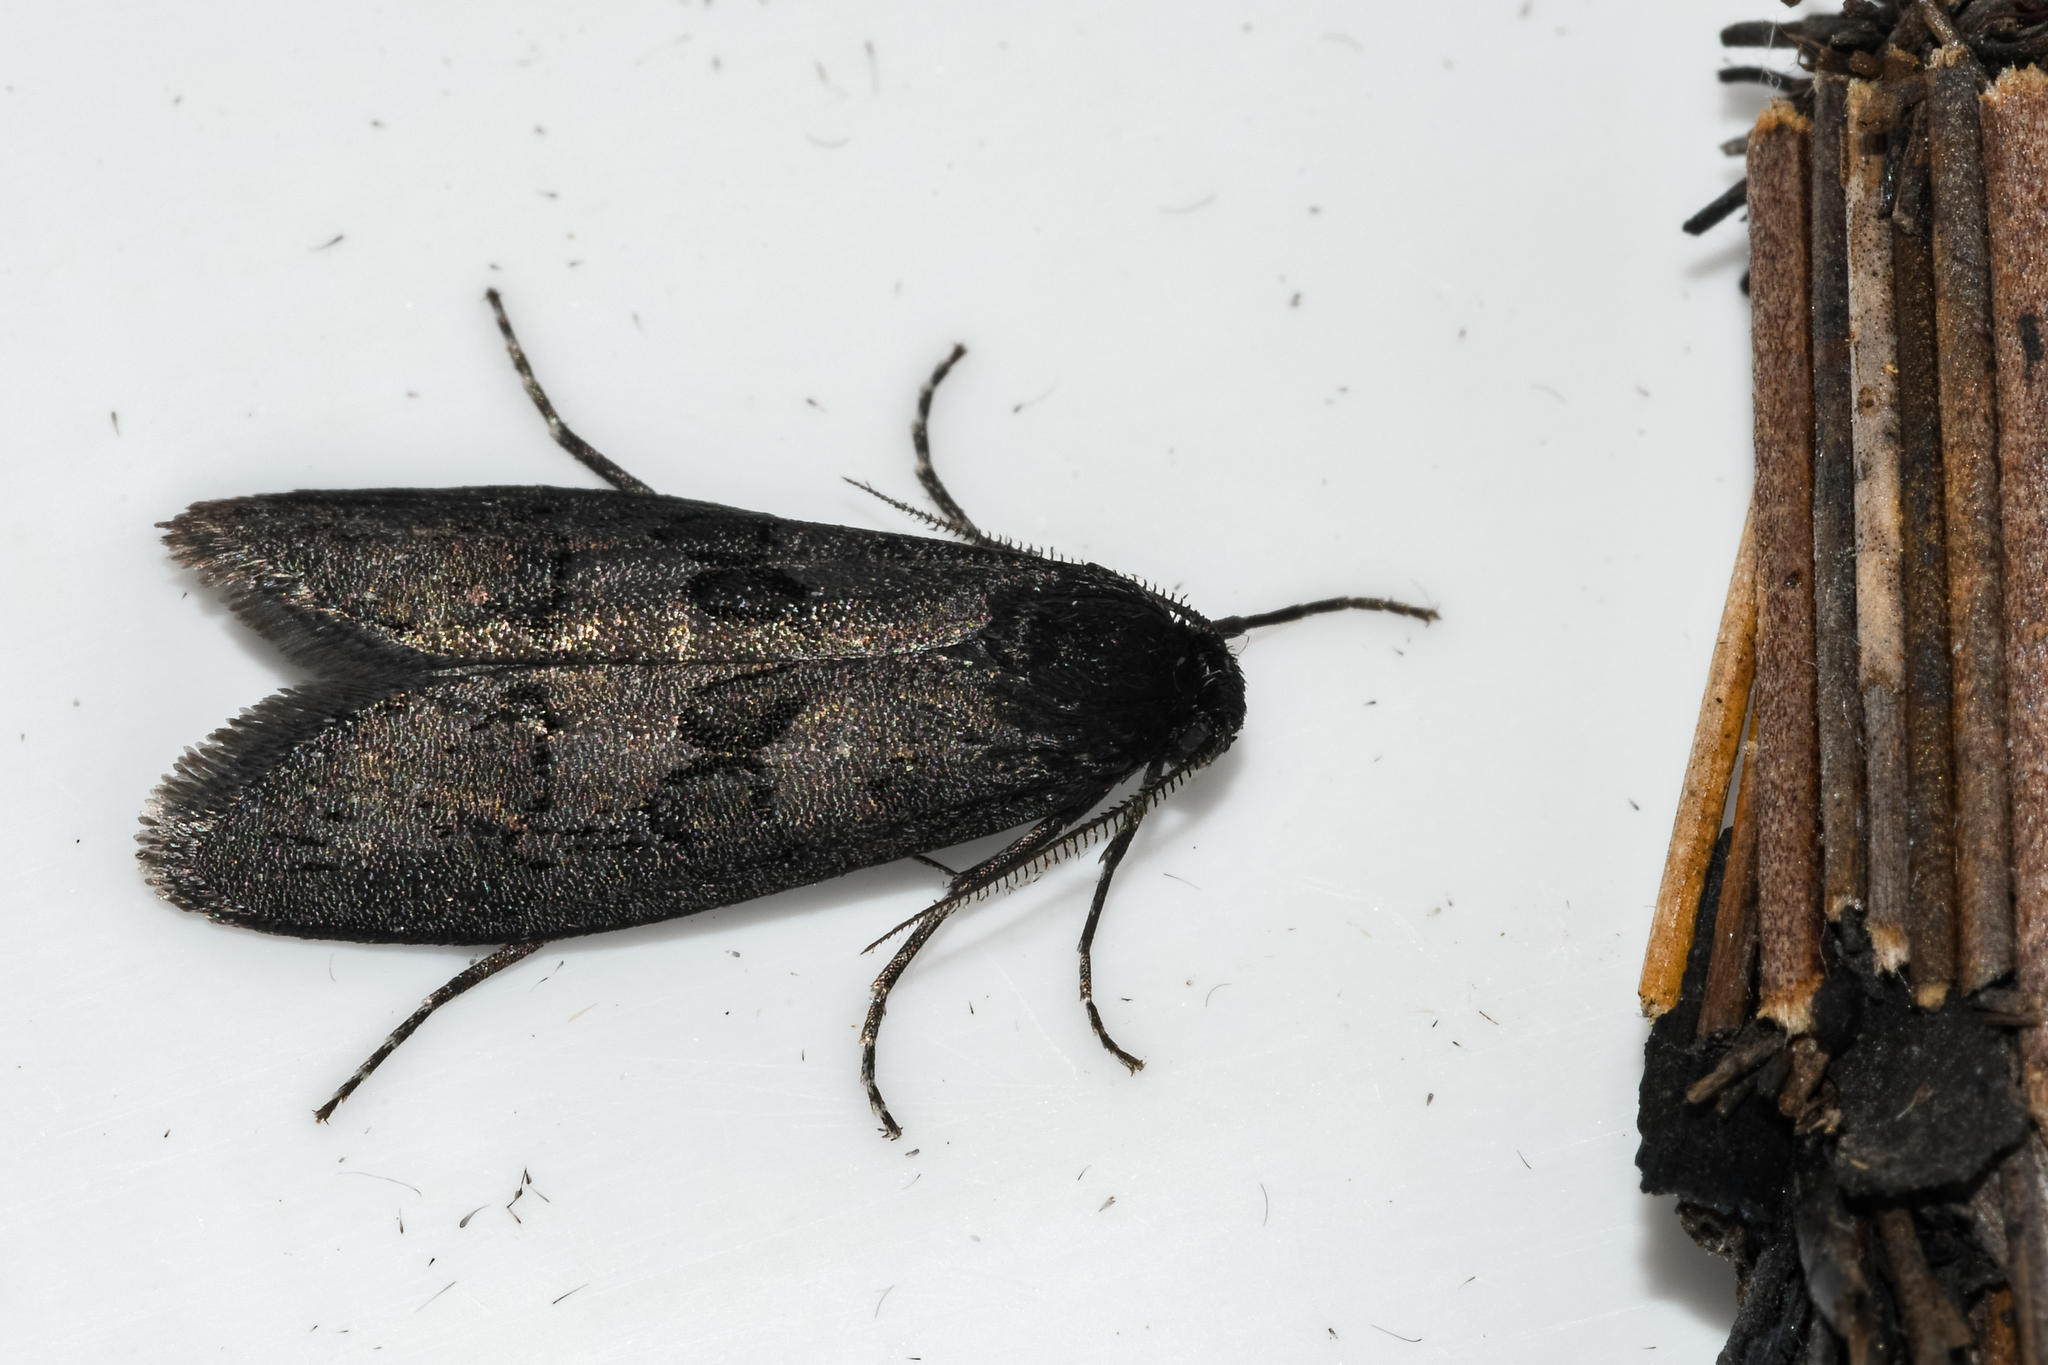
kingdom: Animalia
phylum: Arthropoda
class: Insecta
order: Lepidoptera
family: Psychidae
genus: Typhonia
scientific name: Typhonia circophora
